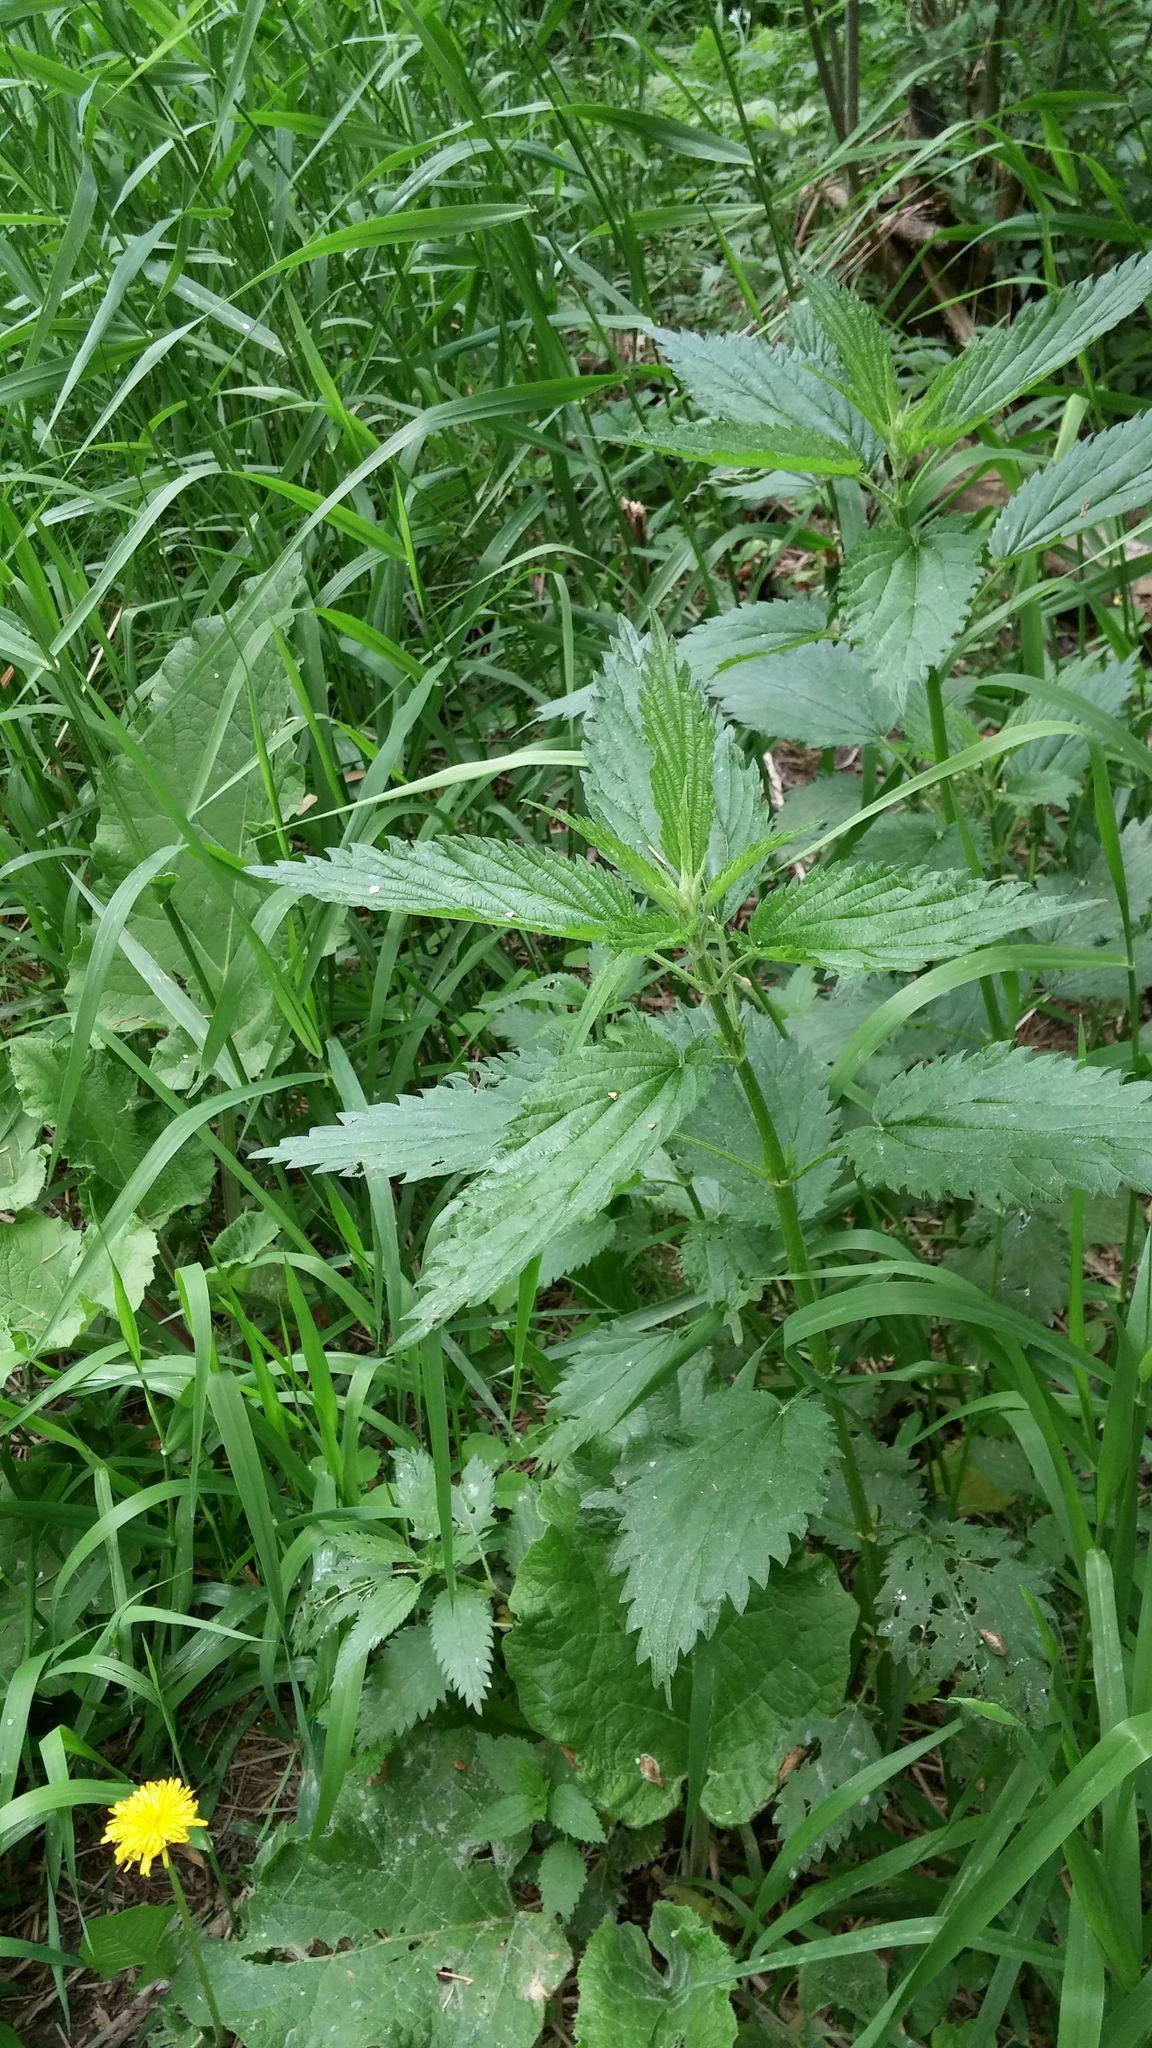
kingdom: Plantae
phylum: Tracheophyta
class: Magnoliopsida
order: Rosales
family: Urticaceae
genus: Urtica
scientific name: Urtica dioica
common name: Common nettle
